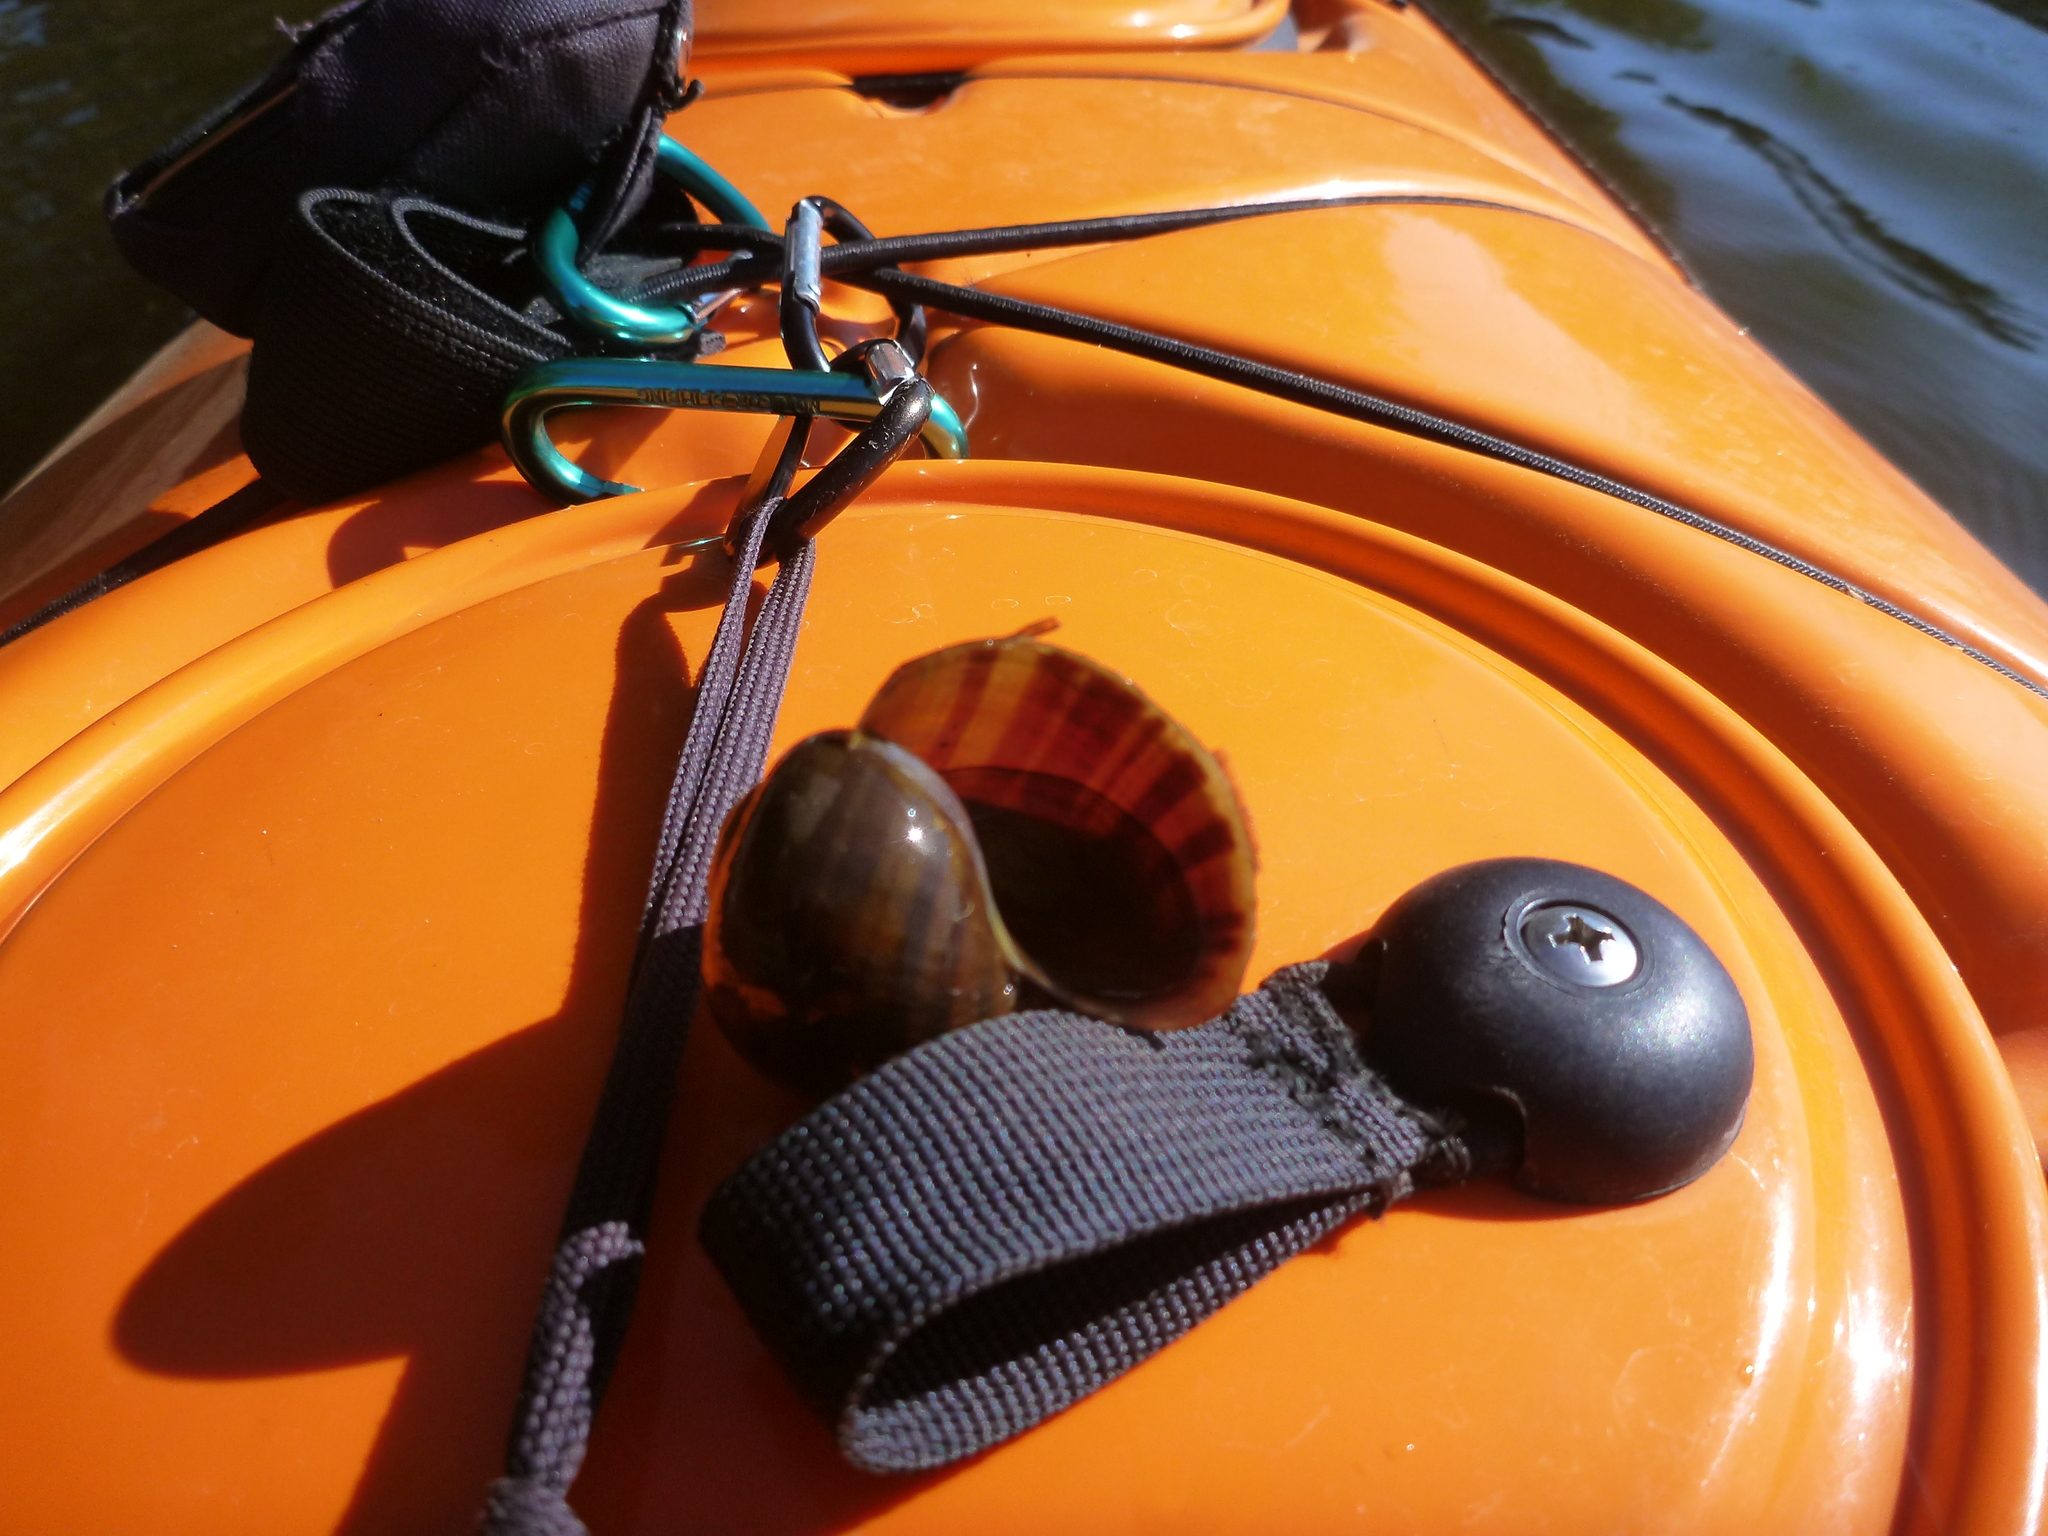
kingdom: Animalia
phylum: Mollusca
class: Gastropoda
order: Architaenioglossa
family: Ampullariidae
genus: Pomacea
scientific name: Pomacea paludosa
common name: Florida applesnail
